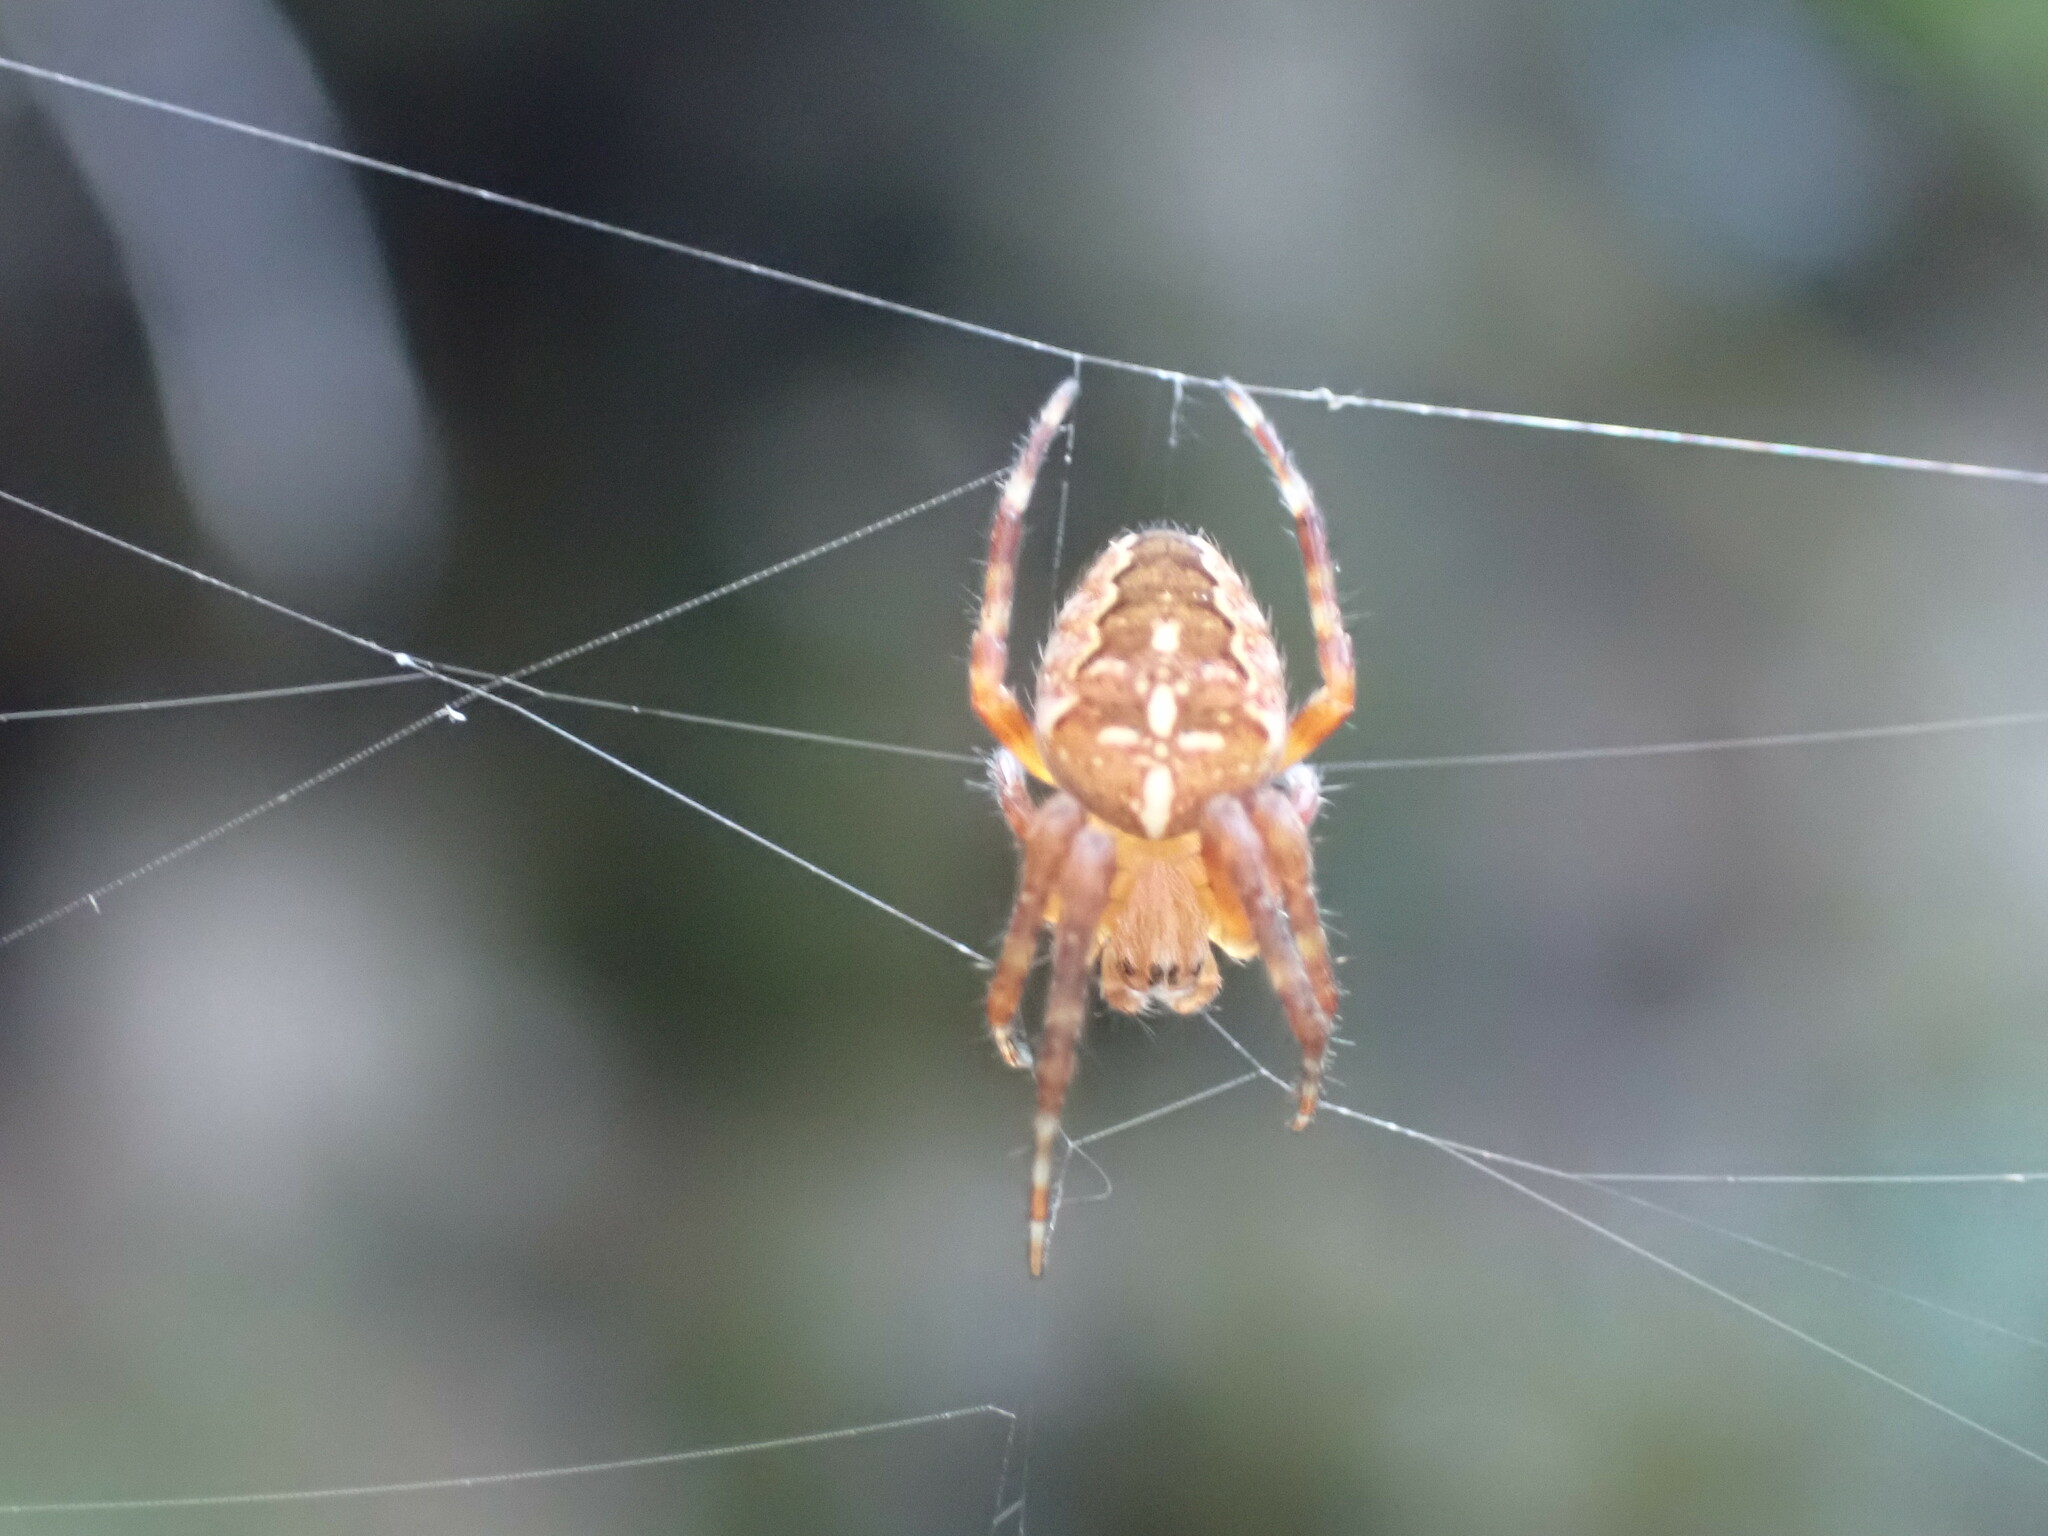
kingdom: Animalia
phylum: Arthropoda
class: Arachnida
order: Araneae
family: Araneidae
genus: Araneus
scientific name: Araneus diadematus
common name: Cross orbweaver
